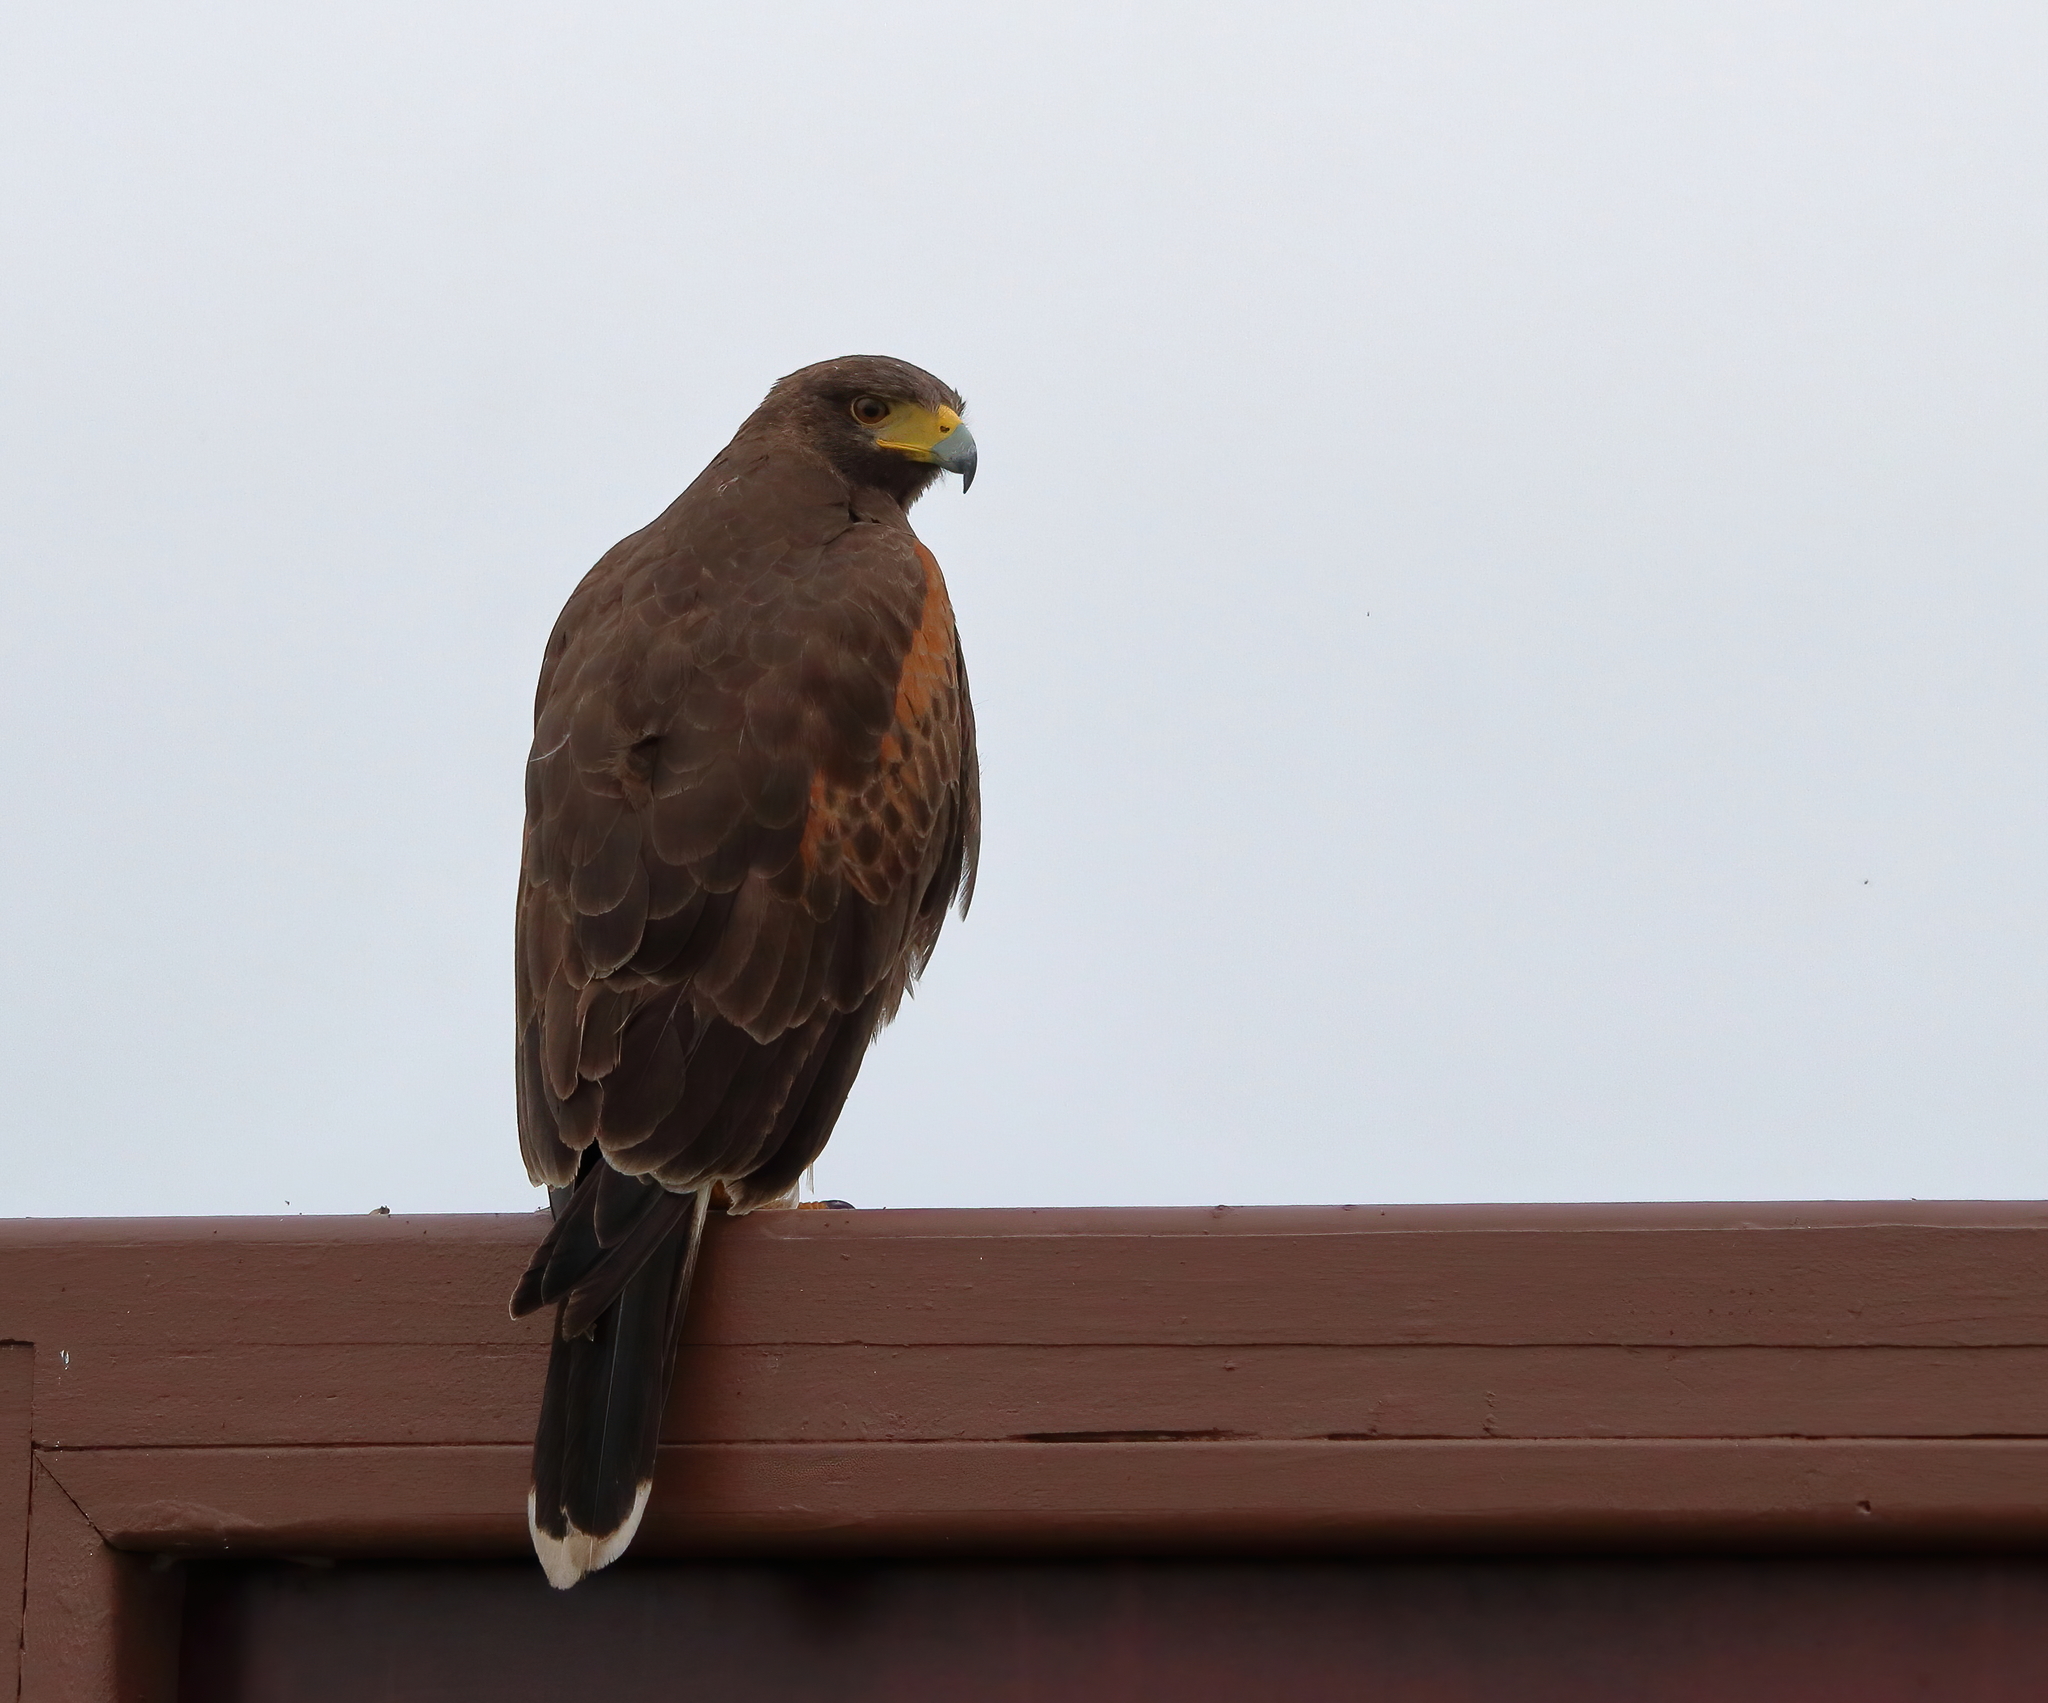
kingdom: Animalia
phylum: Chordata
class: Aves
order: Accipitriformes
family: Accipitridae
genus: Parabuteo
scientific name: Parabuteo unicinctus
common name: Harris's hawk
